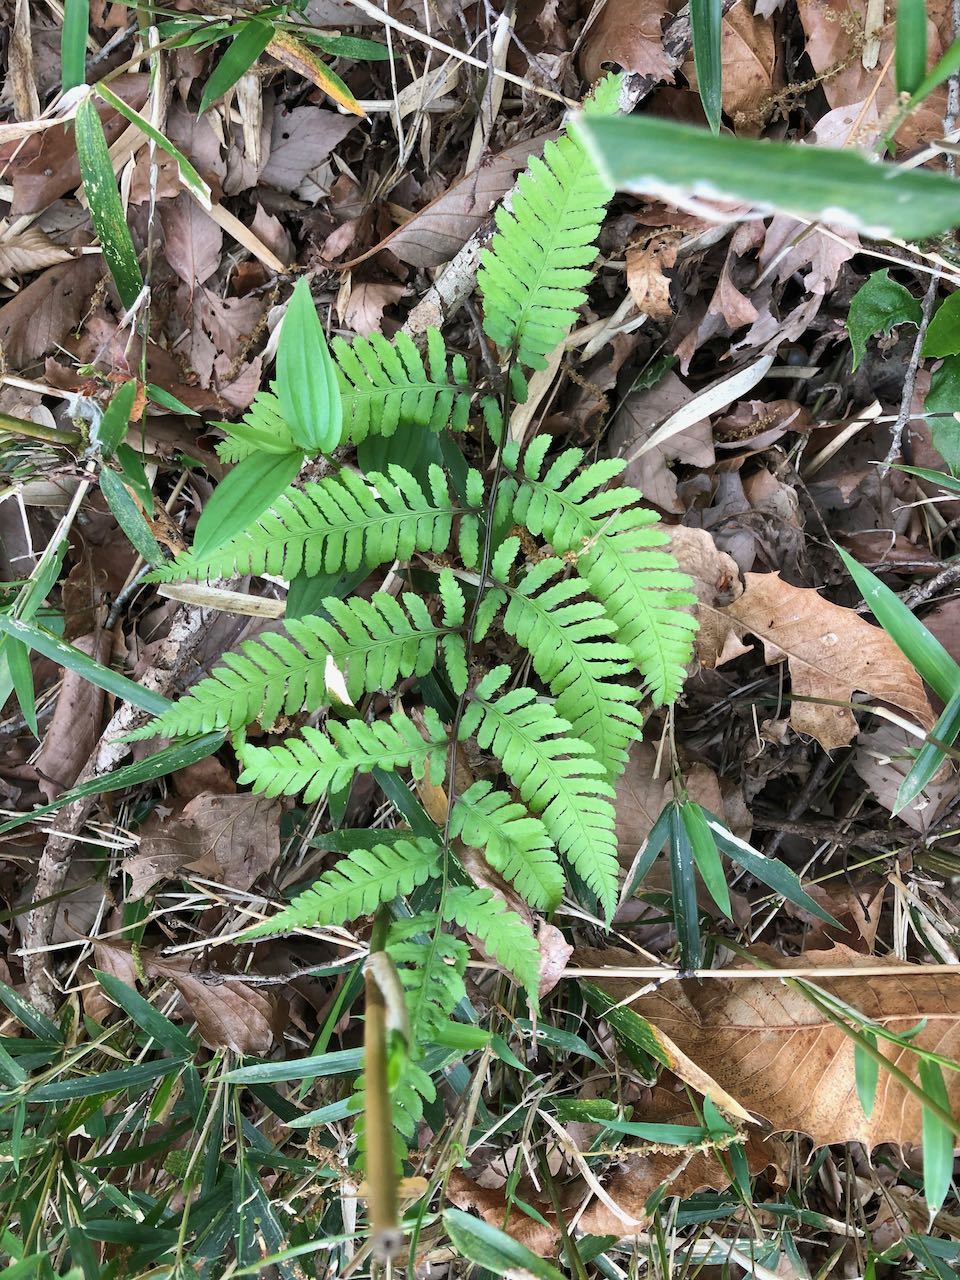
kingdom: Plantae
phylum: Tracheophyta
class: Polypodiopsida
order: Polypodiales
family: Athyriaceae
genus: Anisocampium
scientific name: Anisocampium niponicum
